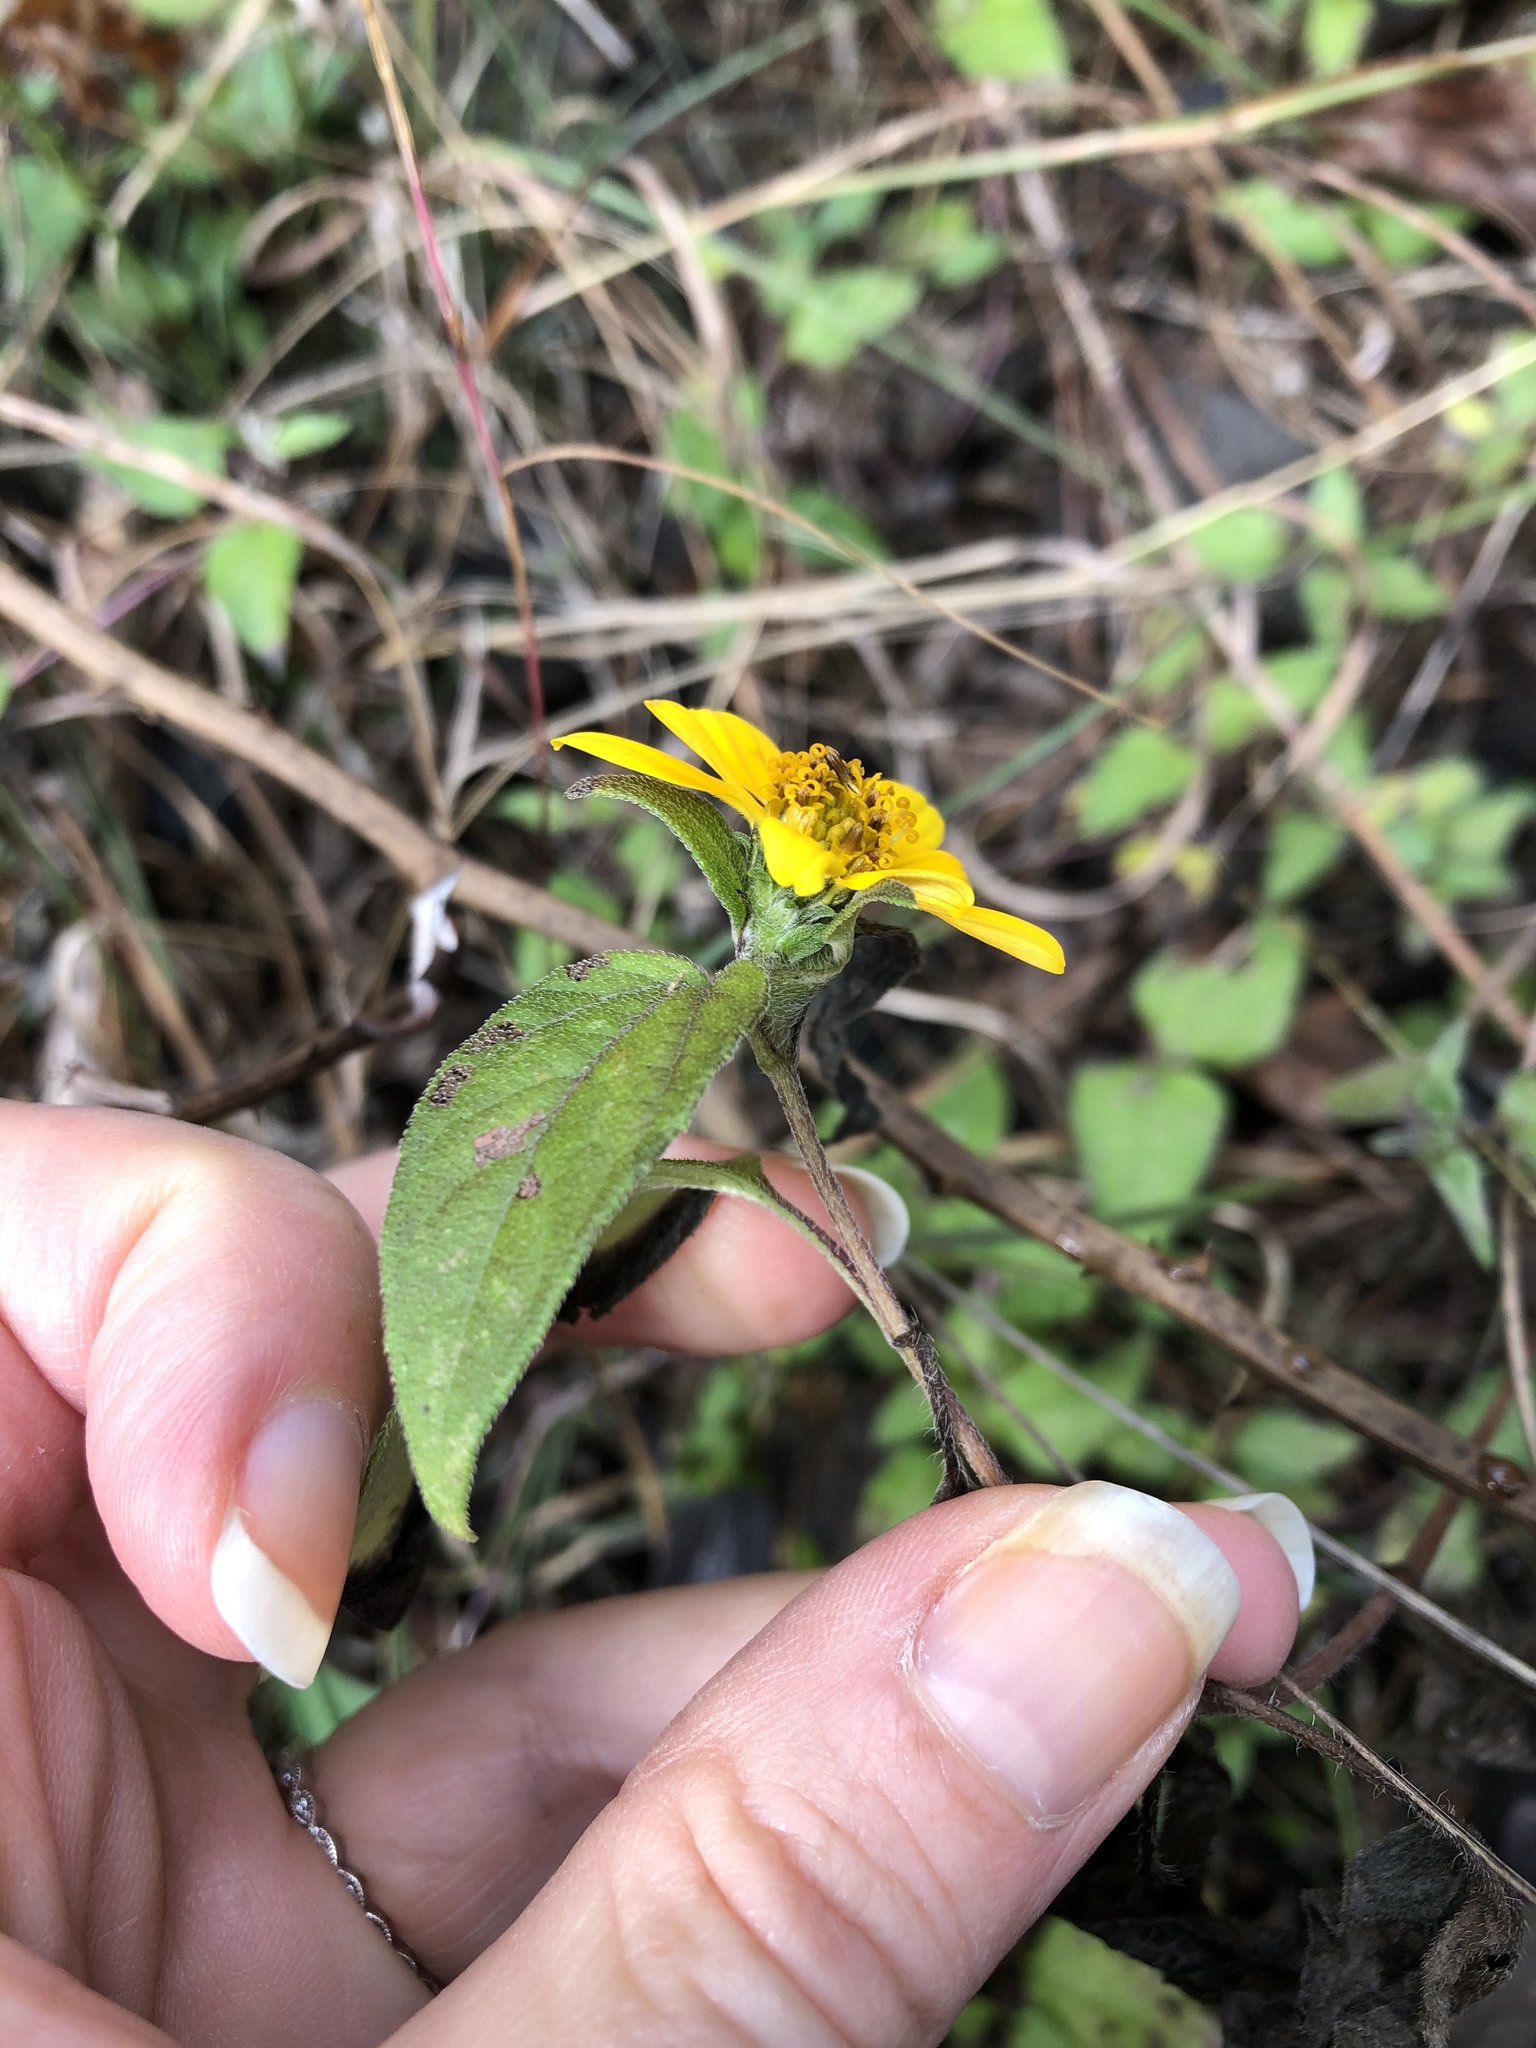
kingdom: Plantae
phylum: Tracheophyta
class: Magnoliopsida
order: Asterales
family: Asteraceae
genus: Wedelia
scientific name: Wedelia acapulcensis
